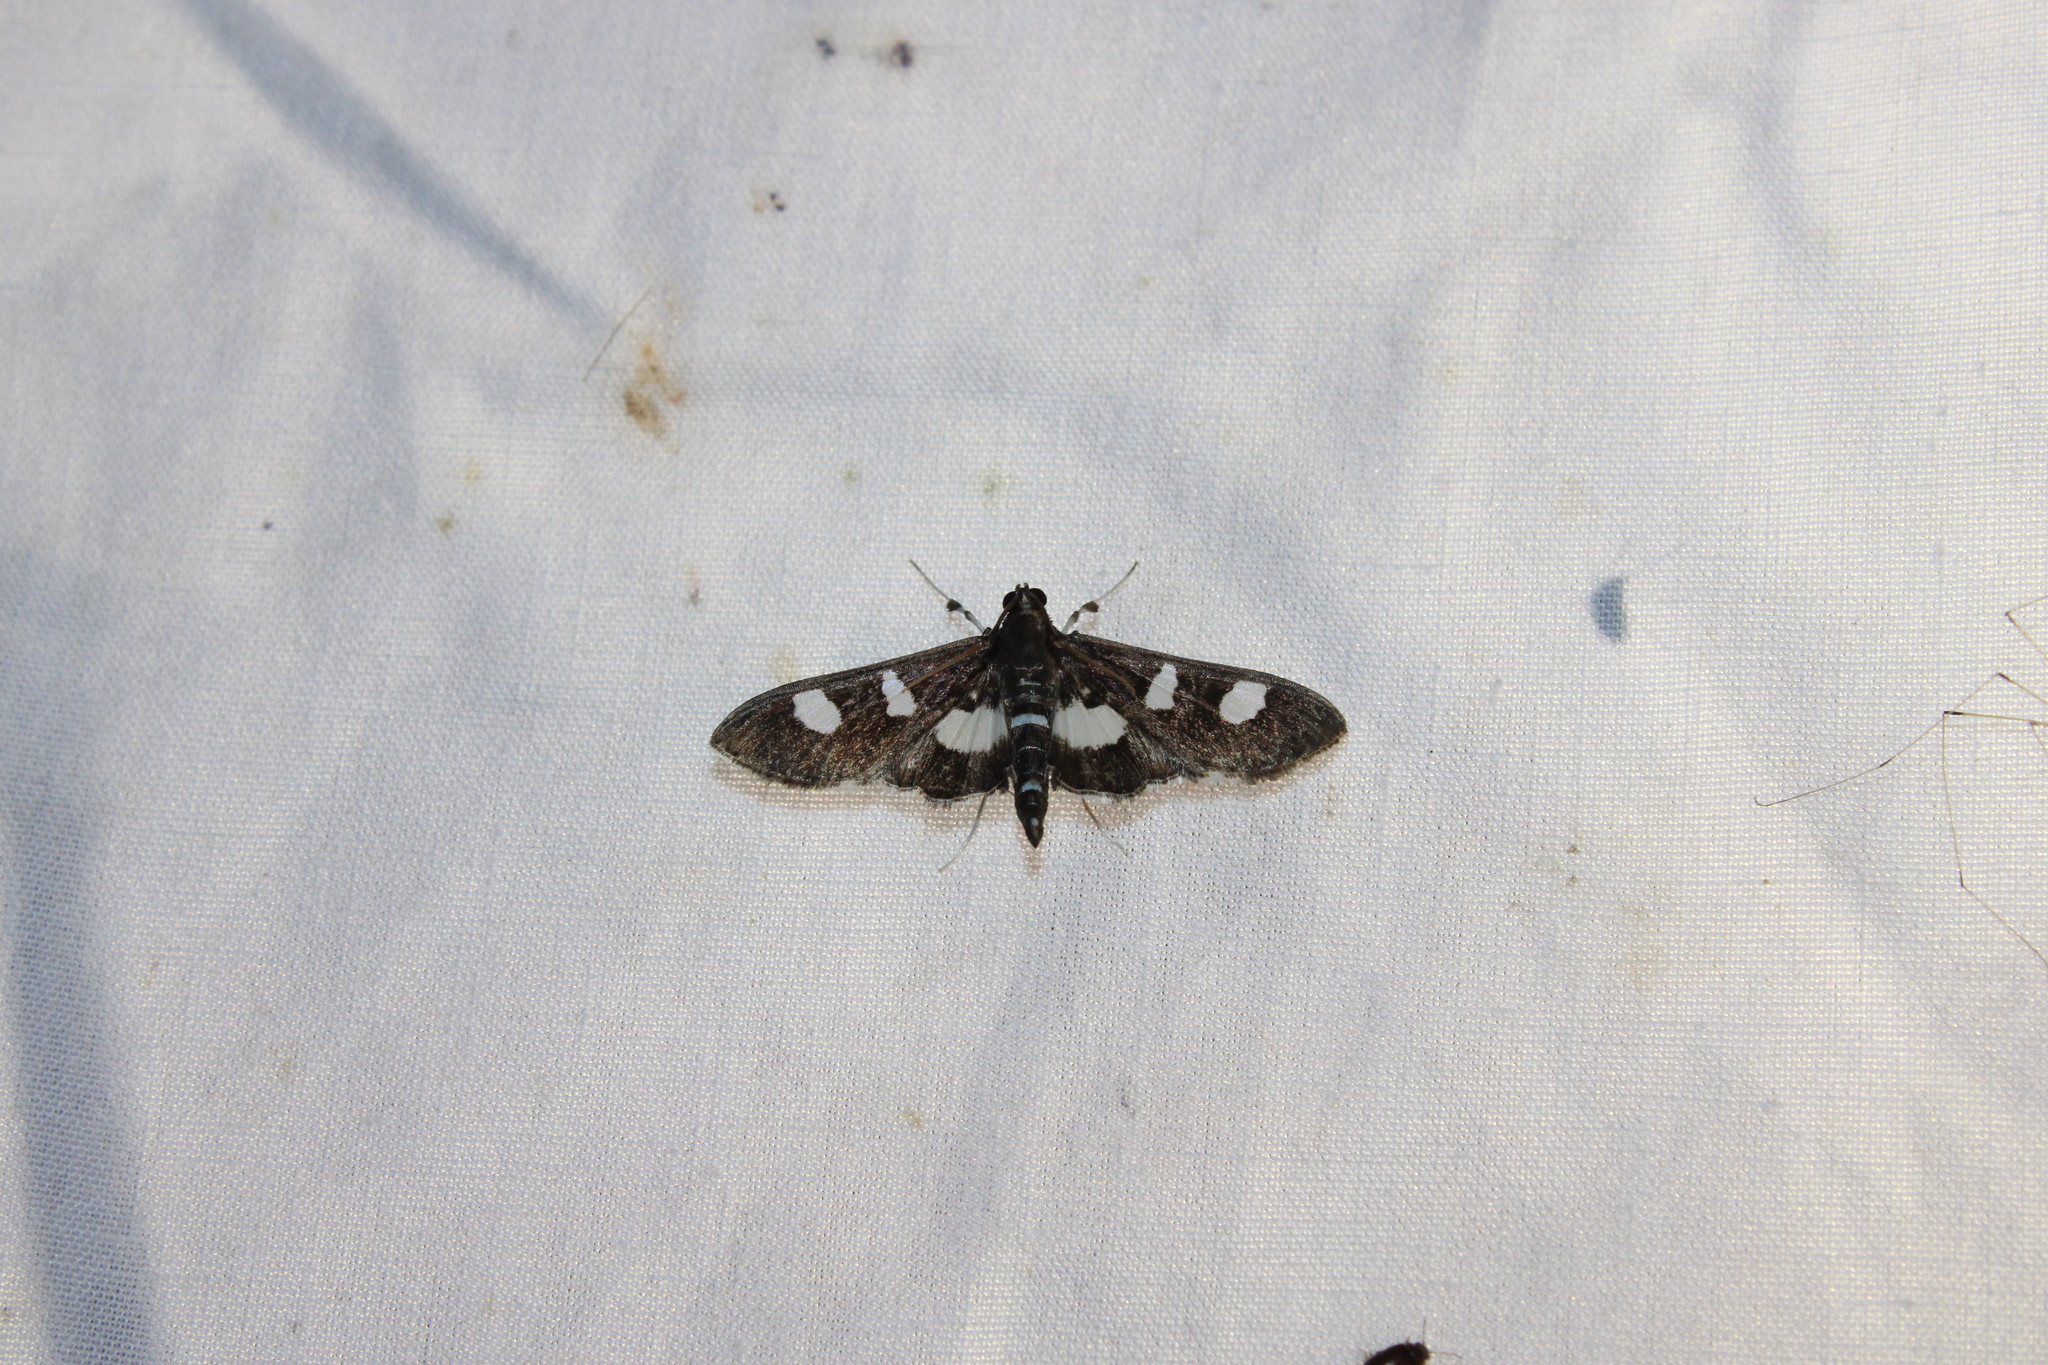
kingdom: Animalia
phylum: Arthropoda
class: Insecta
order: Lepidoptera
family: Crambidae
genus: Desmia
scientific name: Desmia
